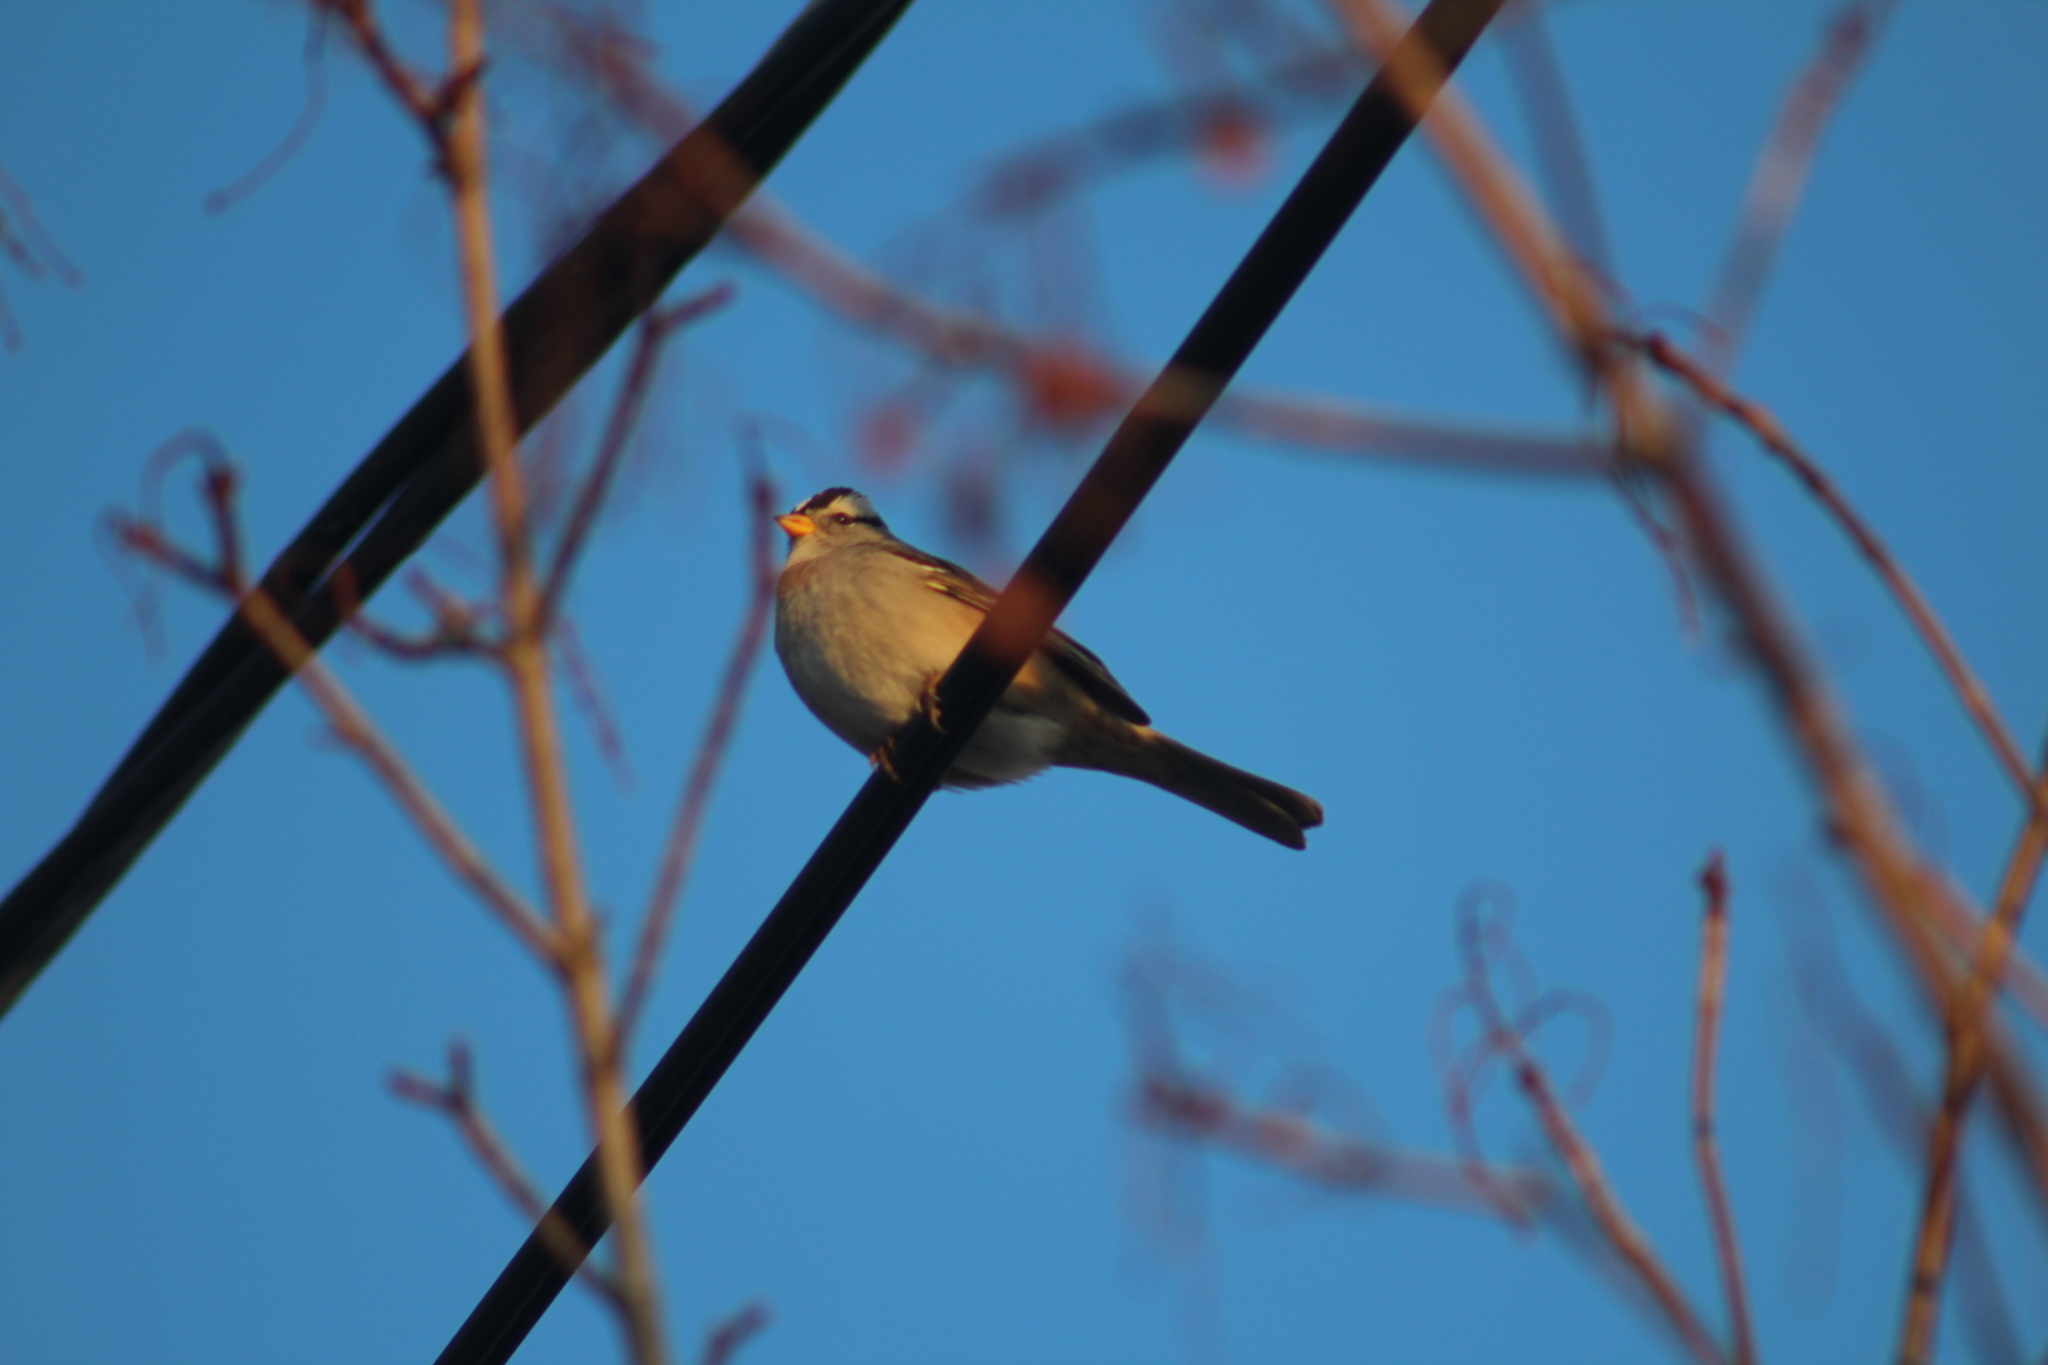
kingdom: Animalia
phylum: Chordata
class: Aves
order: Passeriformes
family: Passerellidae
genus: Zonotrichia
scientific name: Zonotrichia leucophrys
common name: White-crowned sparrow
